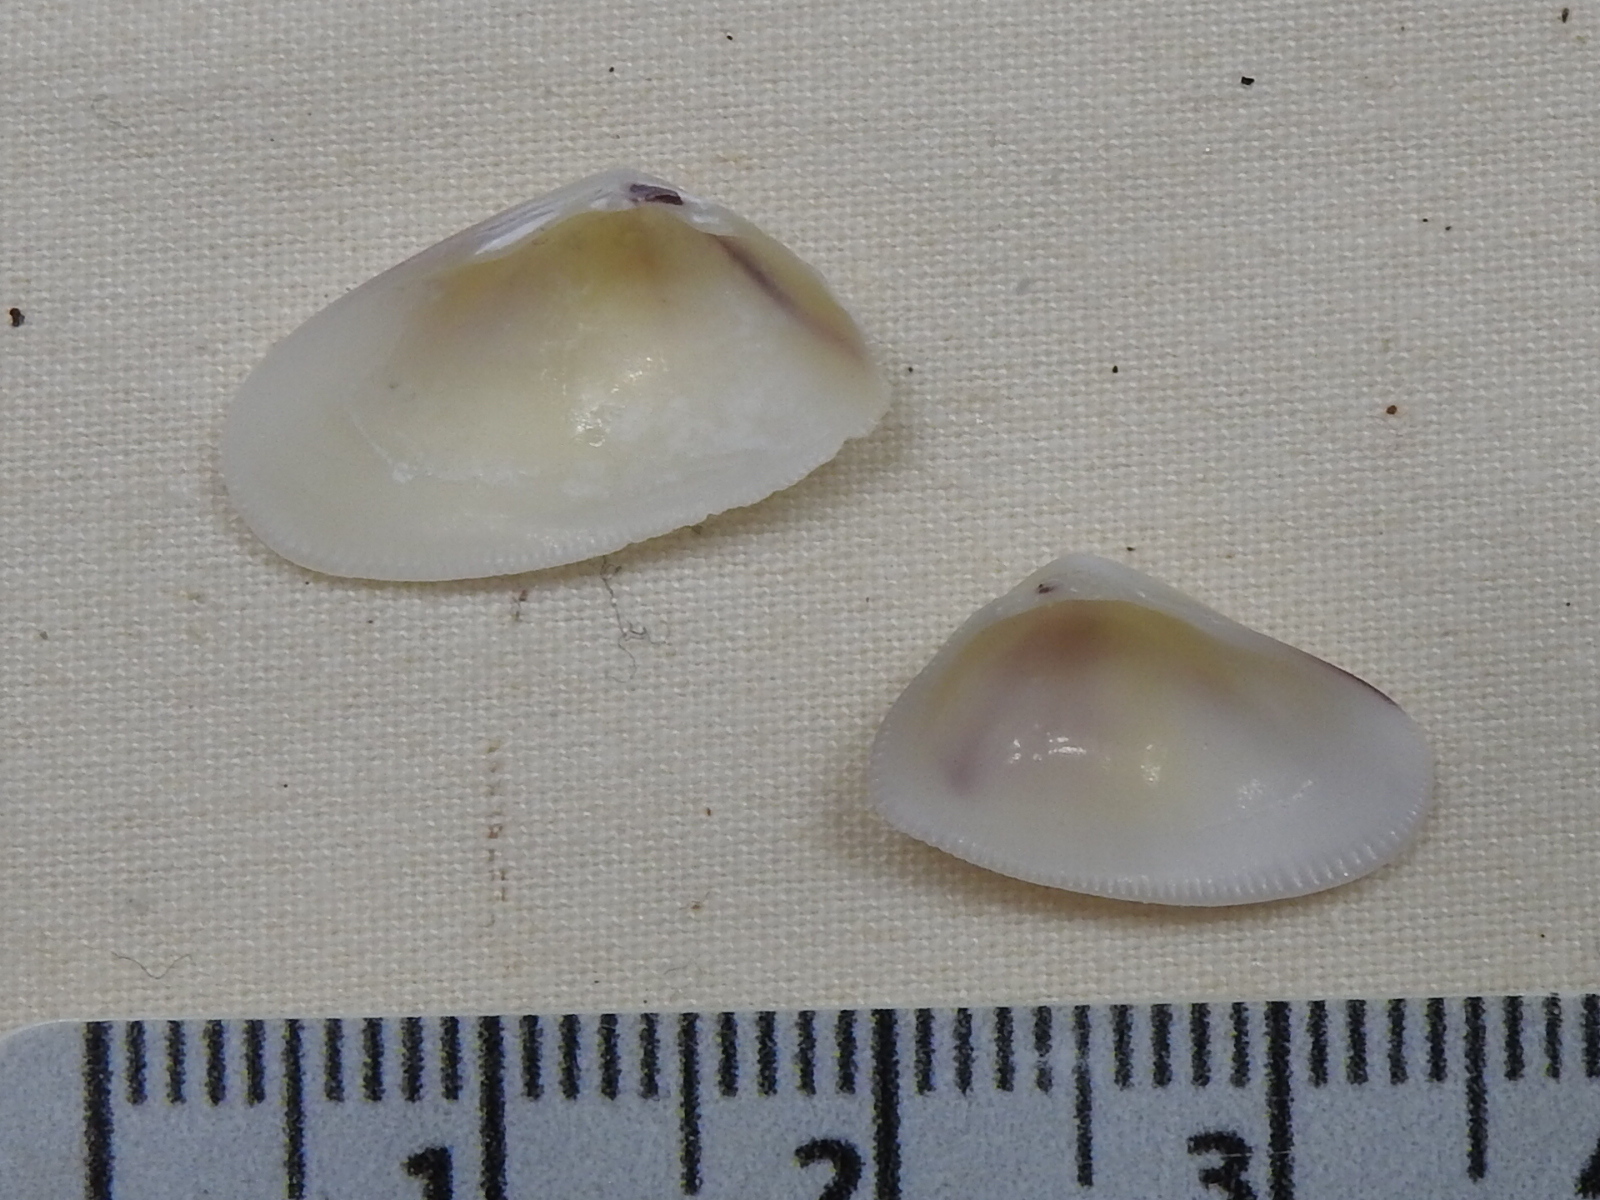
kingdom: Animalia
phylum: Mollusca
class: Bivalvia
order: Cardiida
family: Donacidae
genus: Donax
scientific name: Donax variabilis
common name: Butterfly shell
